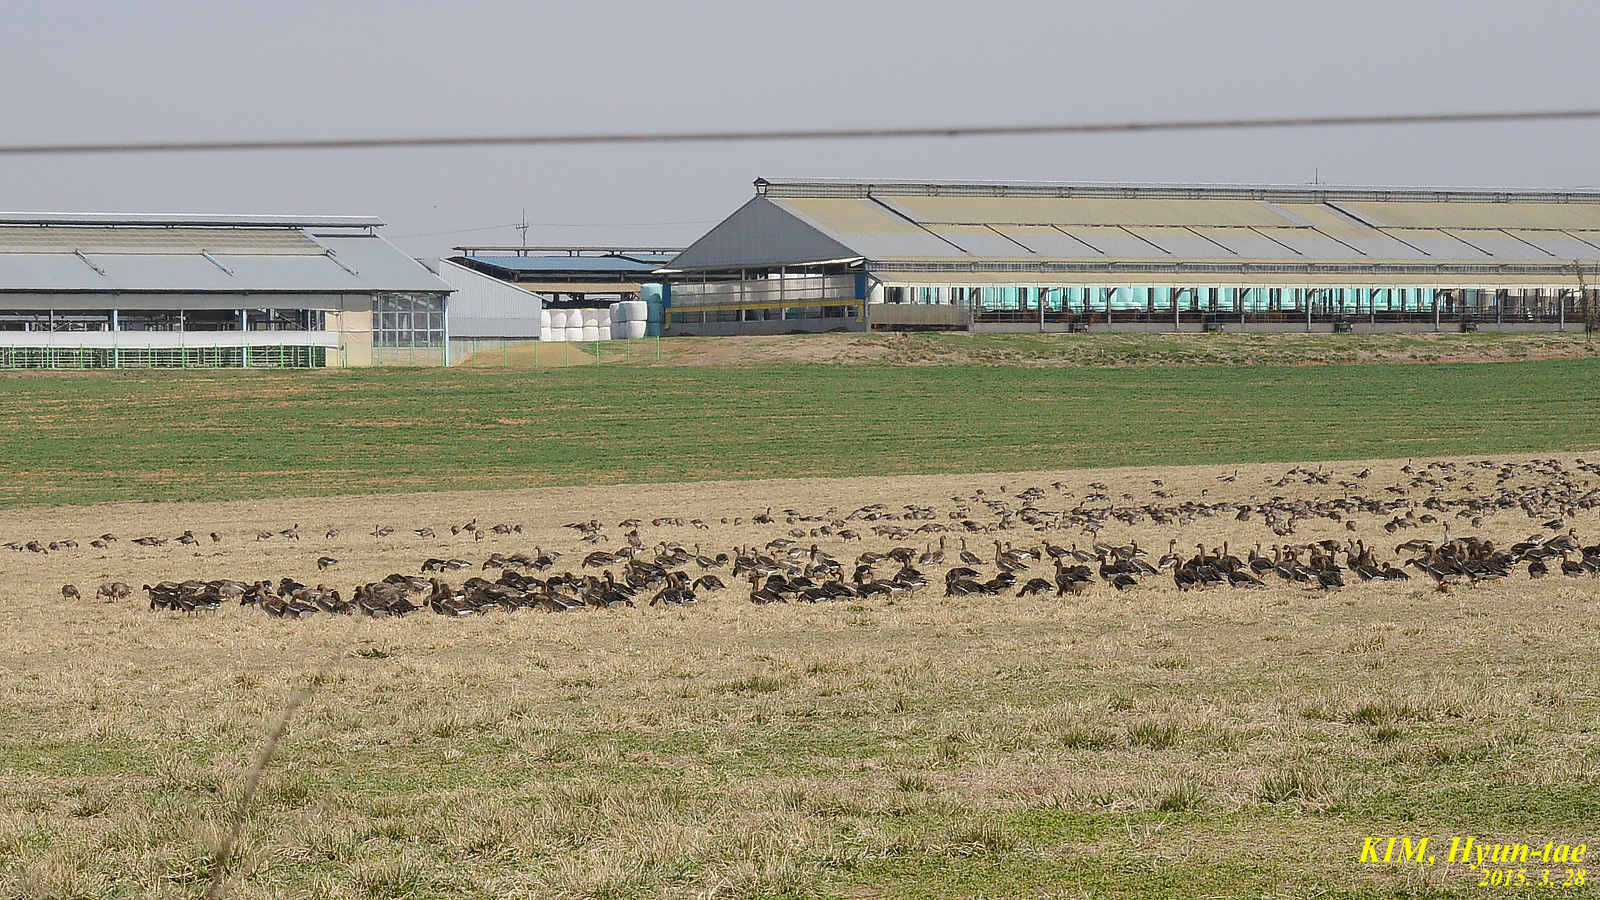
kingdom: Animalia
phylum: Chordata
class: Aves
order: Anseriformes
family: Anatidae
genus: Anser
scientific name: Anser albifrons
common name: Greater white-fronted goose
